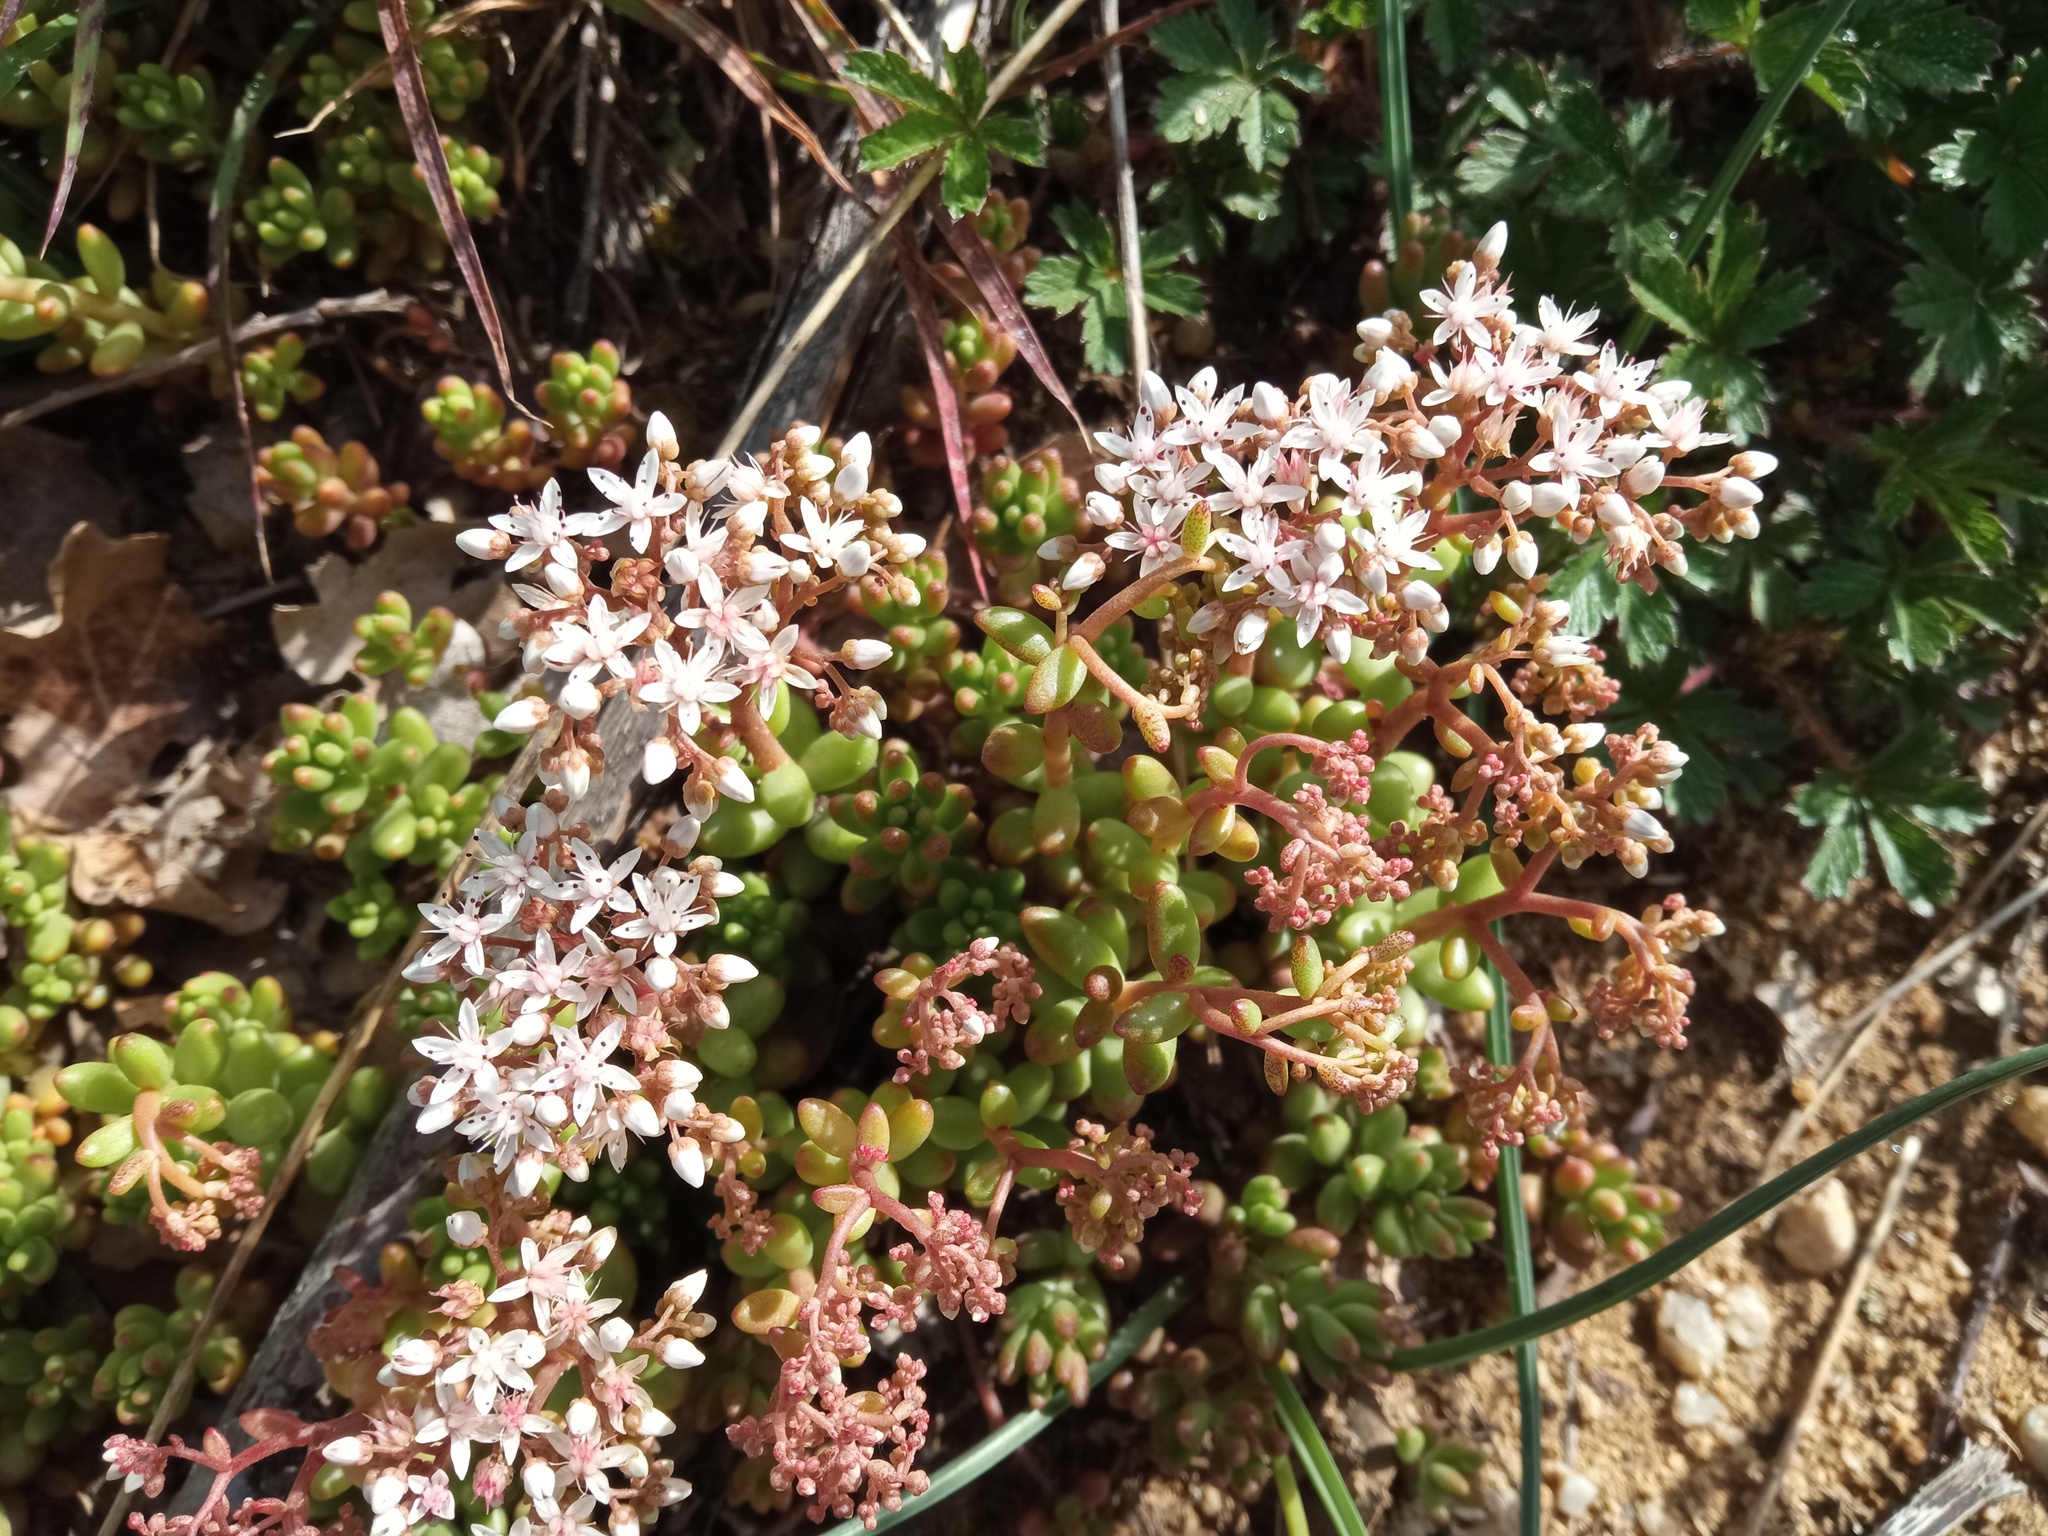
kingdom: Plantae
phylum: Tracheophyta
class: Magnoliopsida
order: Saxifragales
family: Crassulaceae
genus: Sedum
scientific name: Sedum album
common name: White stonecrop
